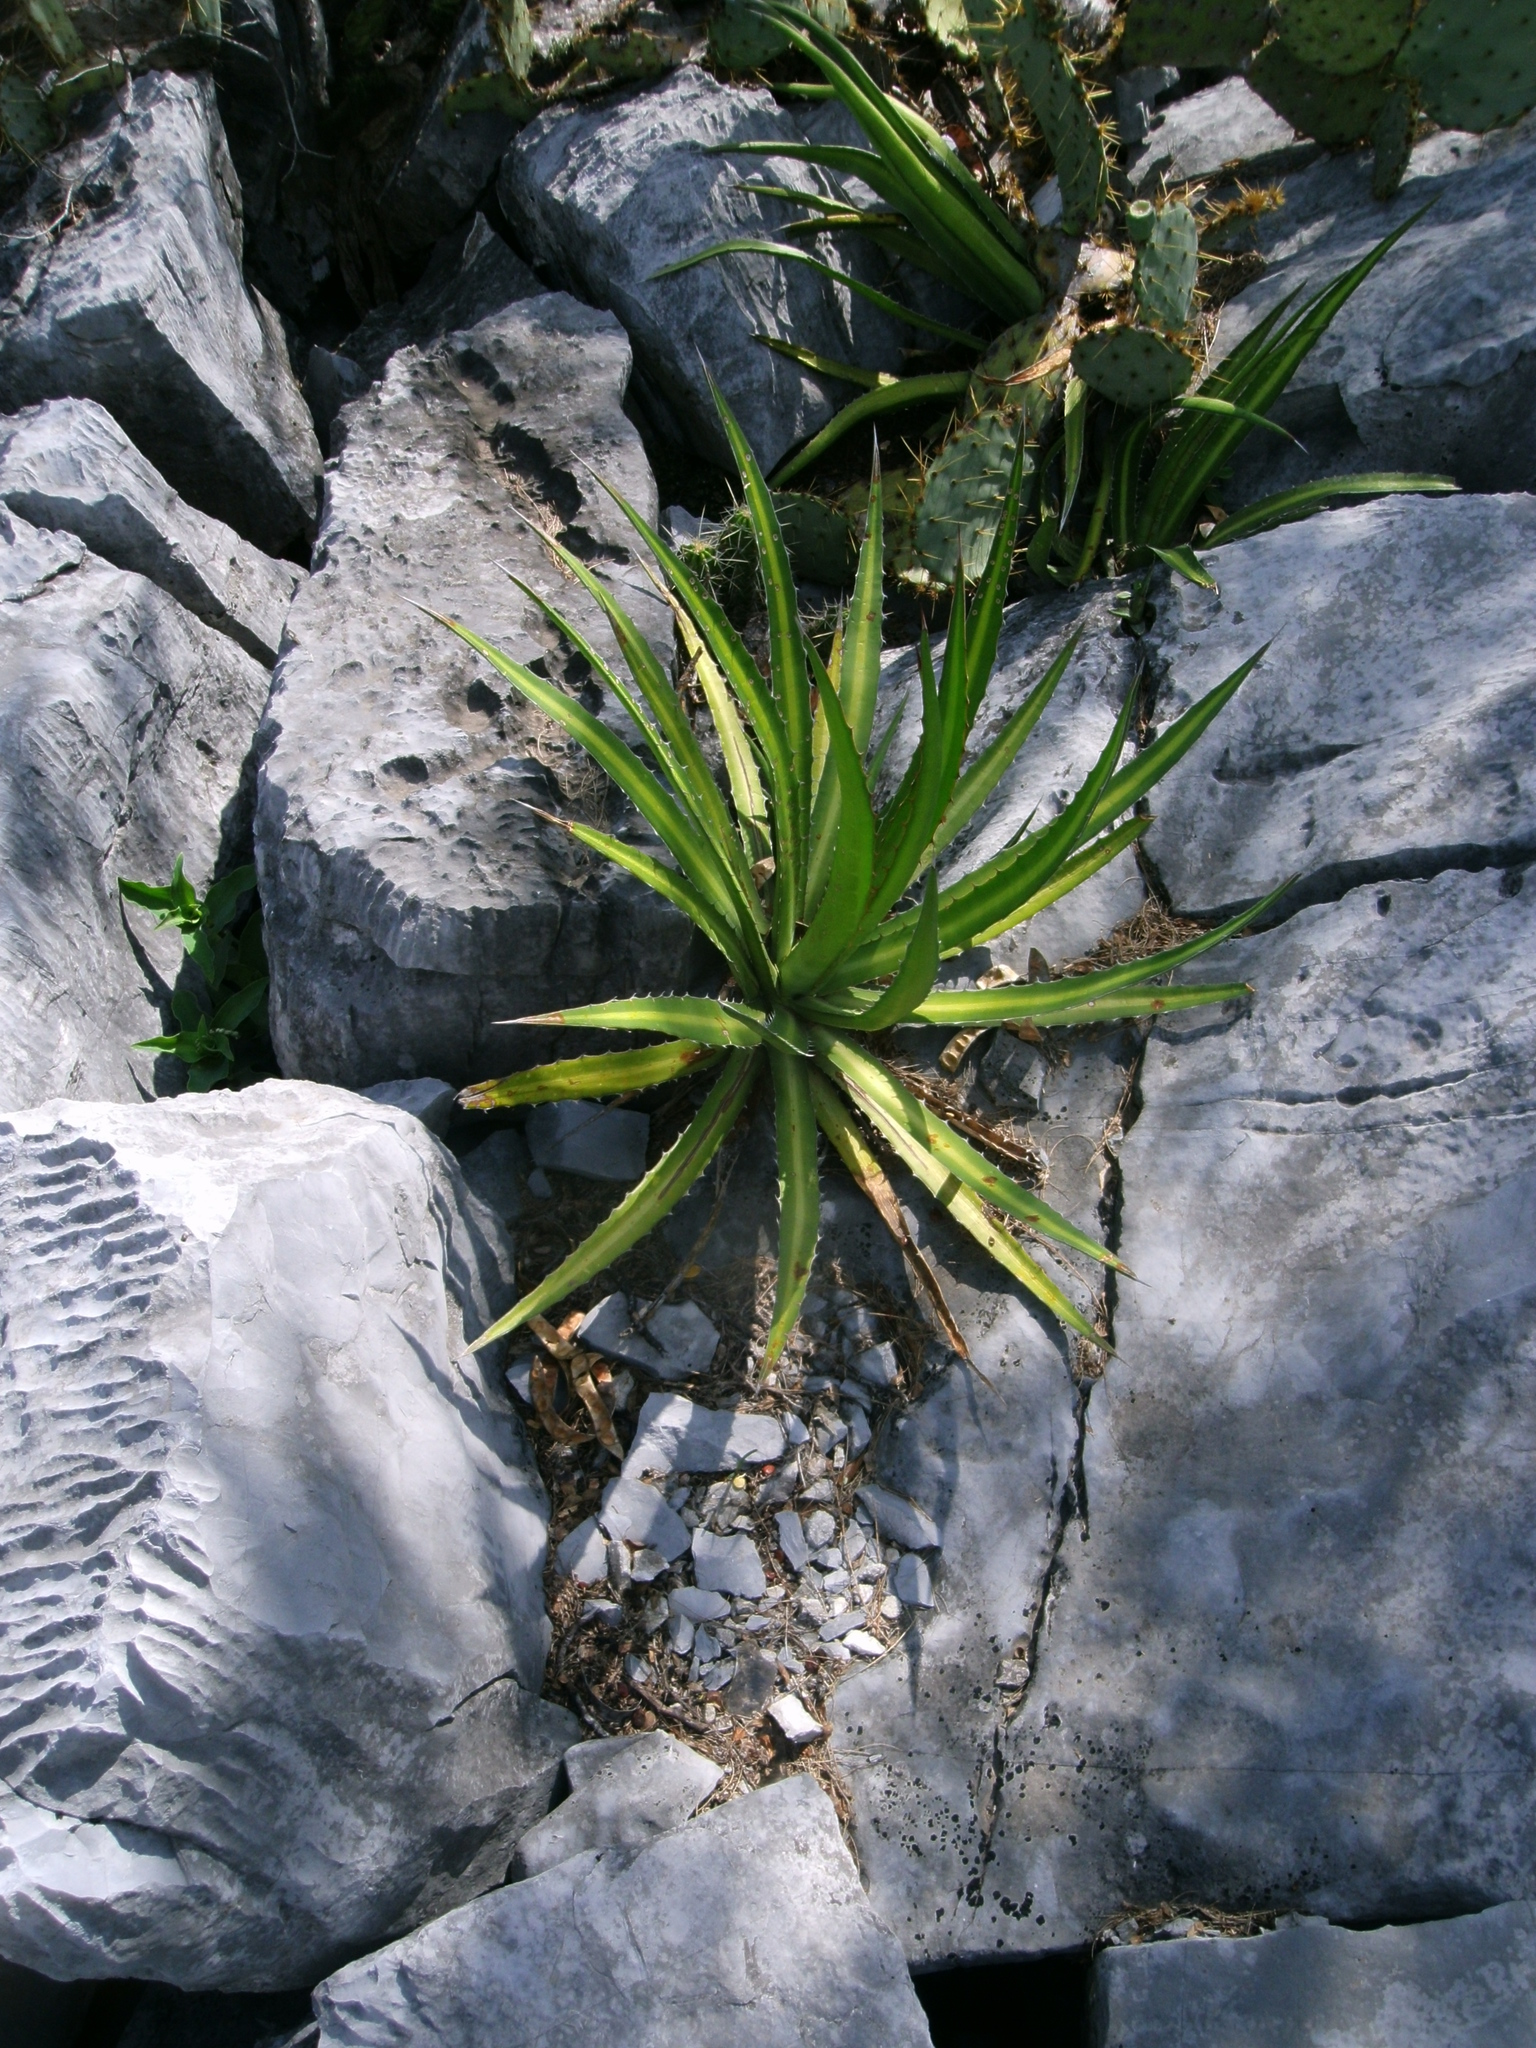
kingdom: Plantae
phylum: Tracheophyta
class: Liliopsida
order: Asparagales
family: Asparagaceae
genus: Agave
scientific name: Agave univittata
